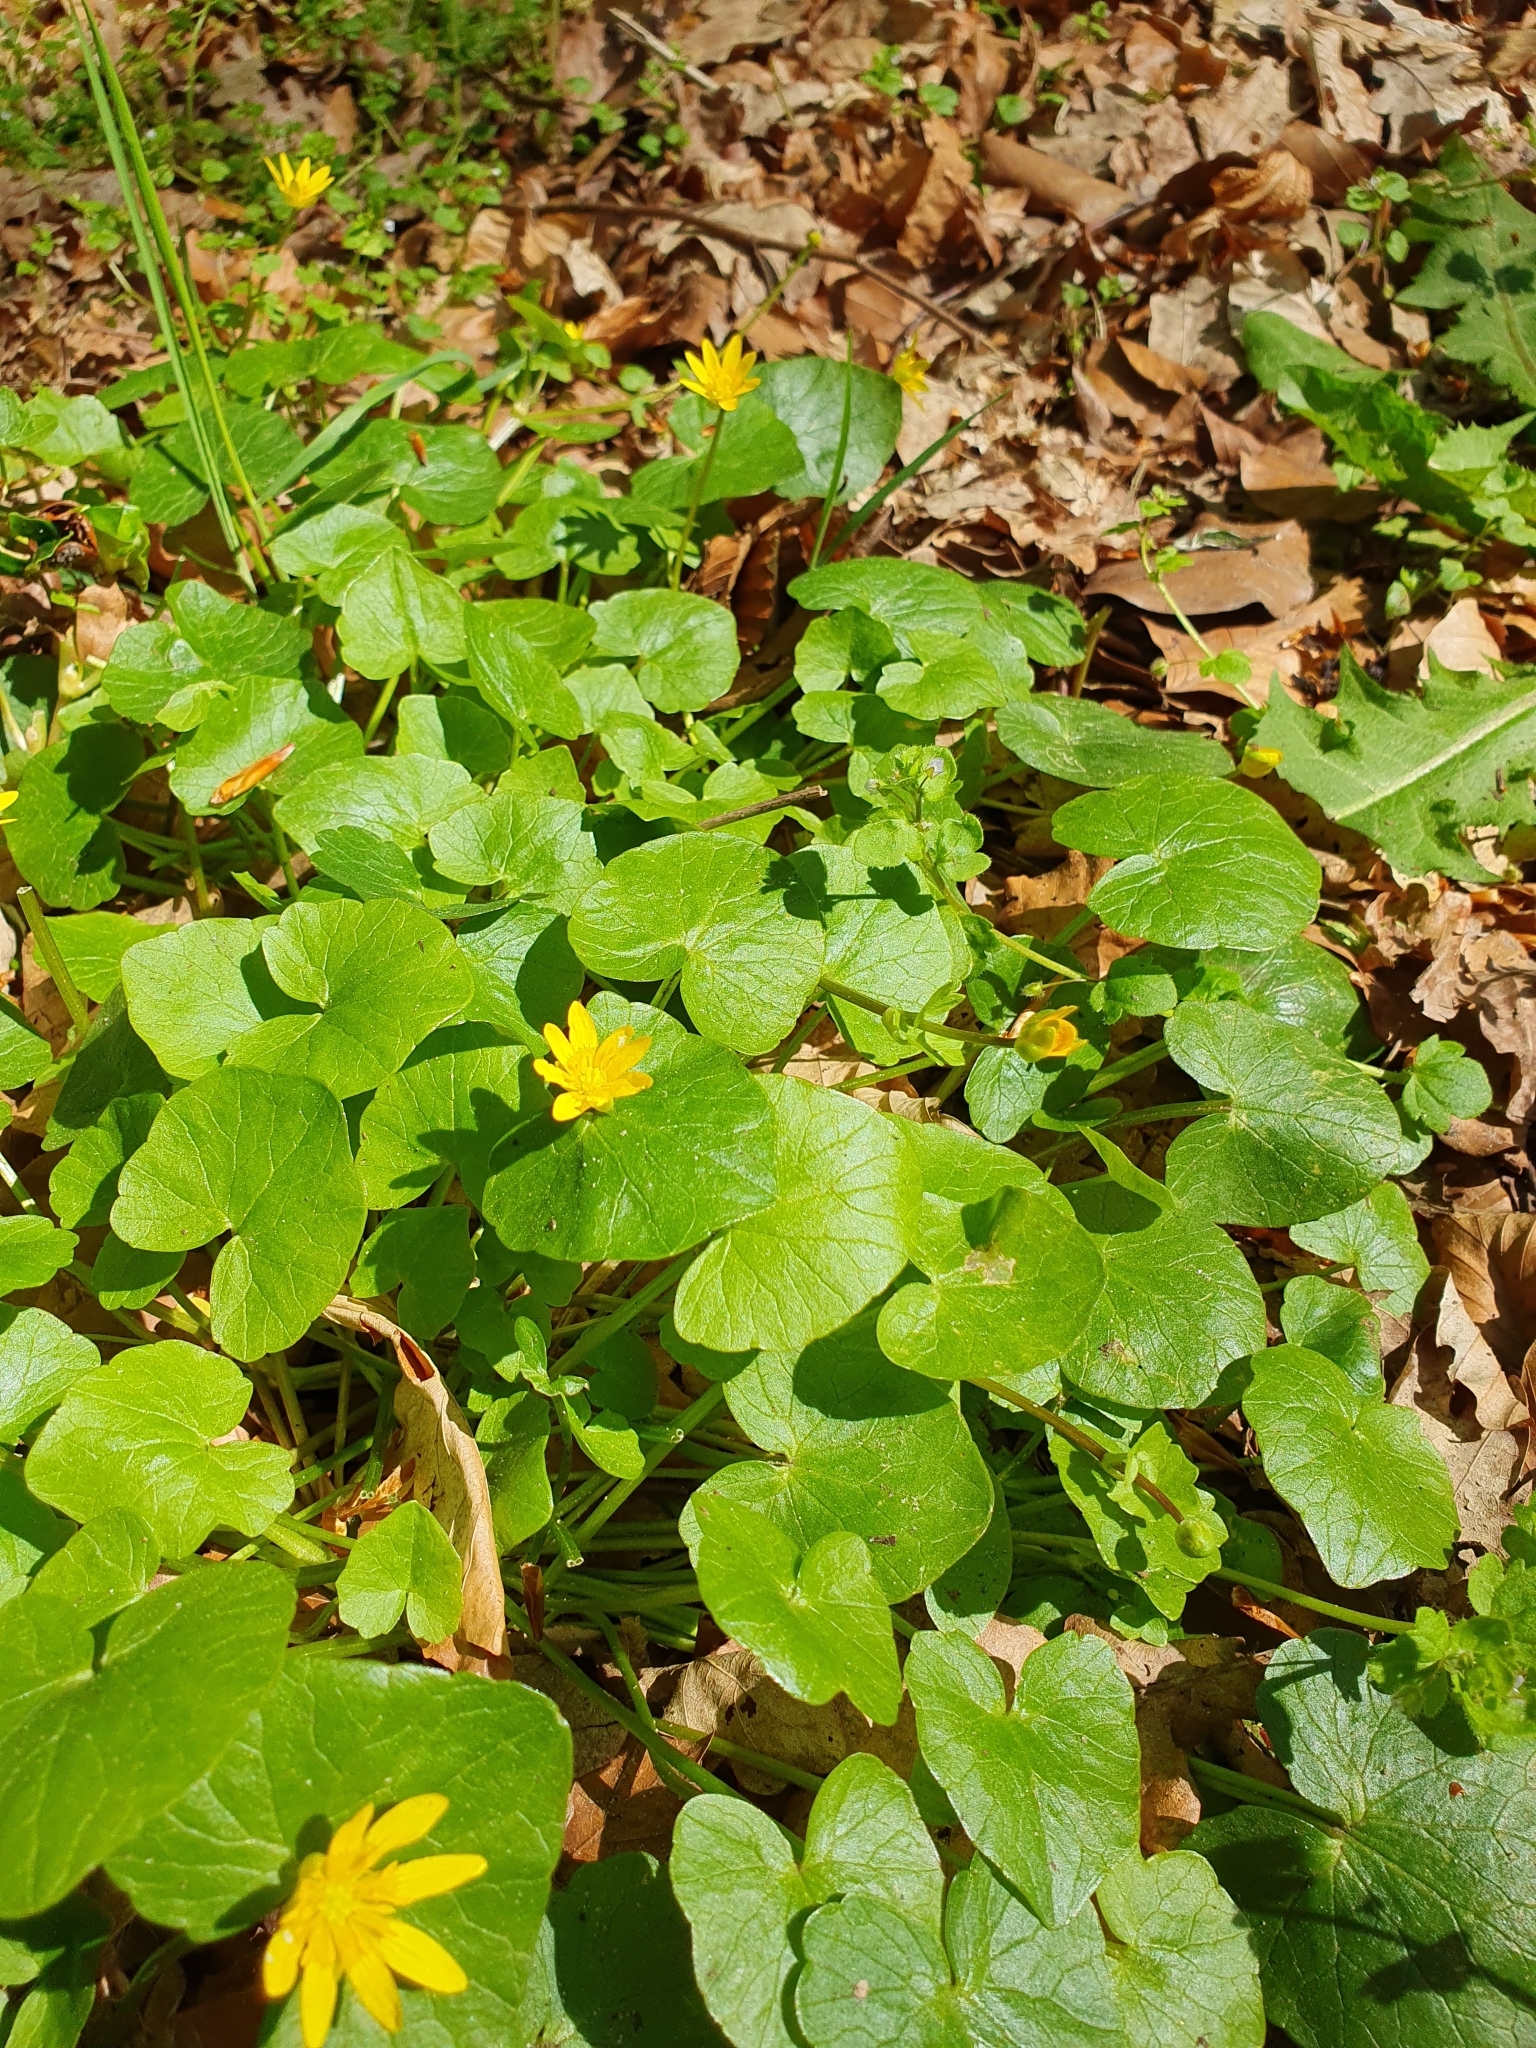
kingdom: Plantae
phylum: Tracheophyta
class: Magnoliopsida
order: Ranunculales
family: Ranunculaceae
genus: Ficaria
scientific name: Ficaria verna
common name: Lesser celandine
